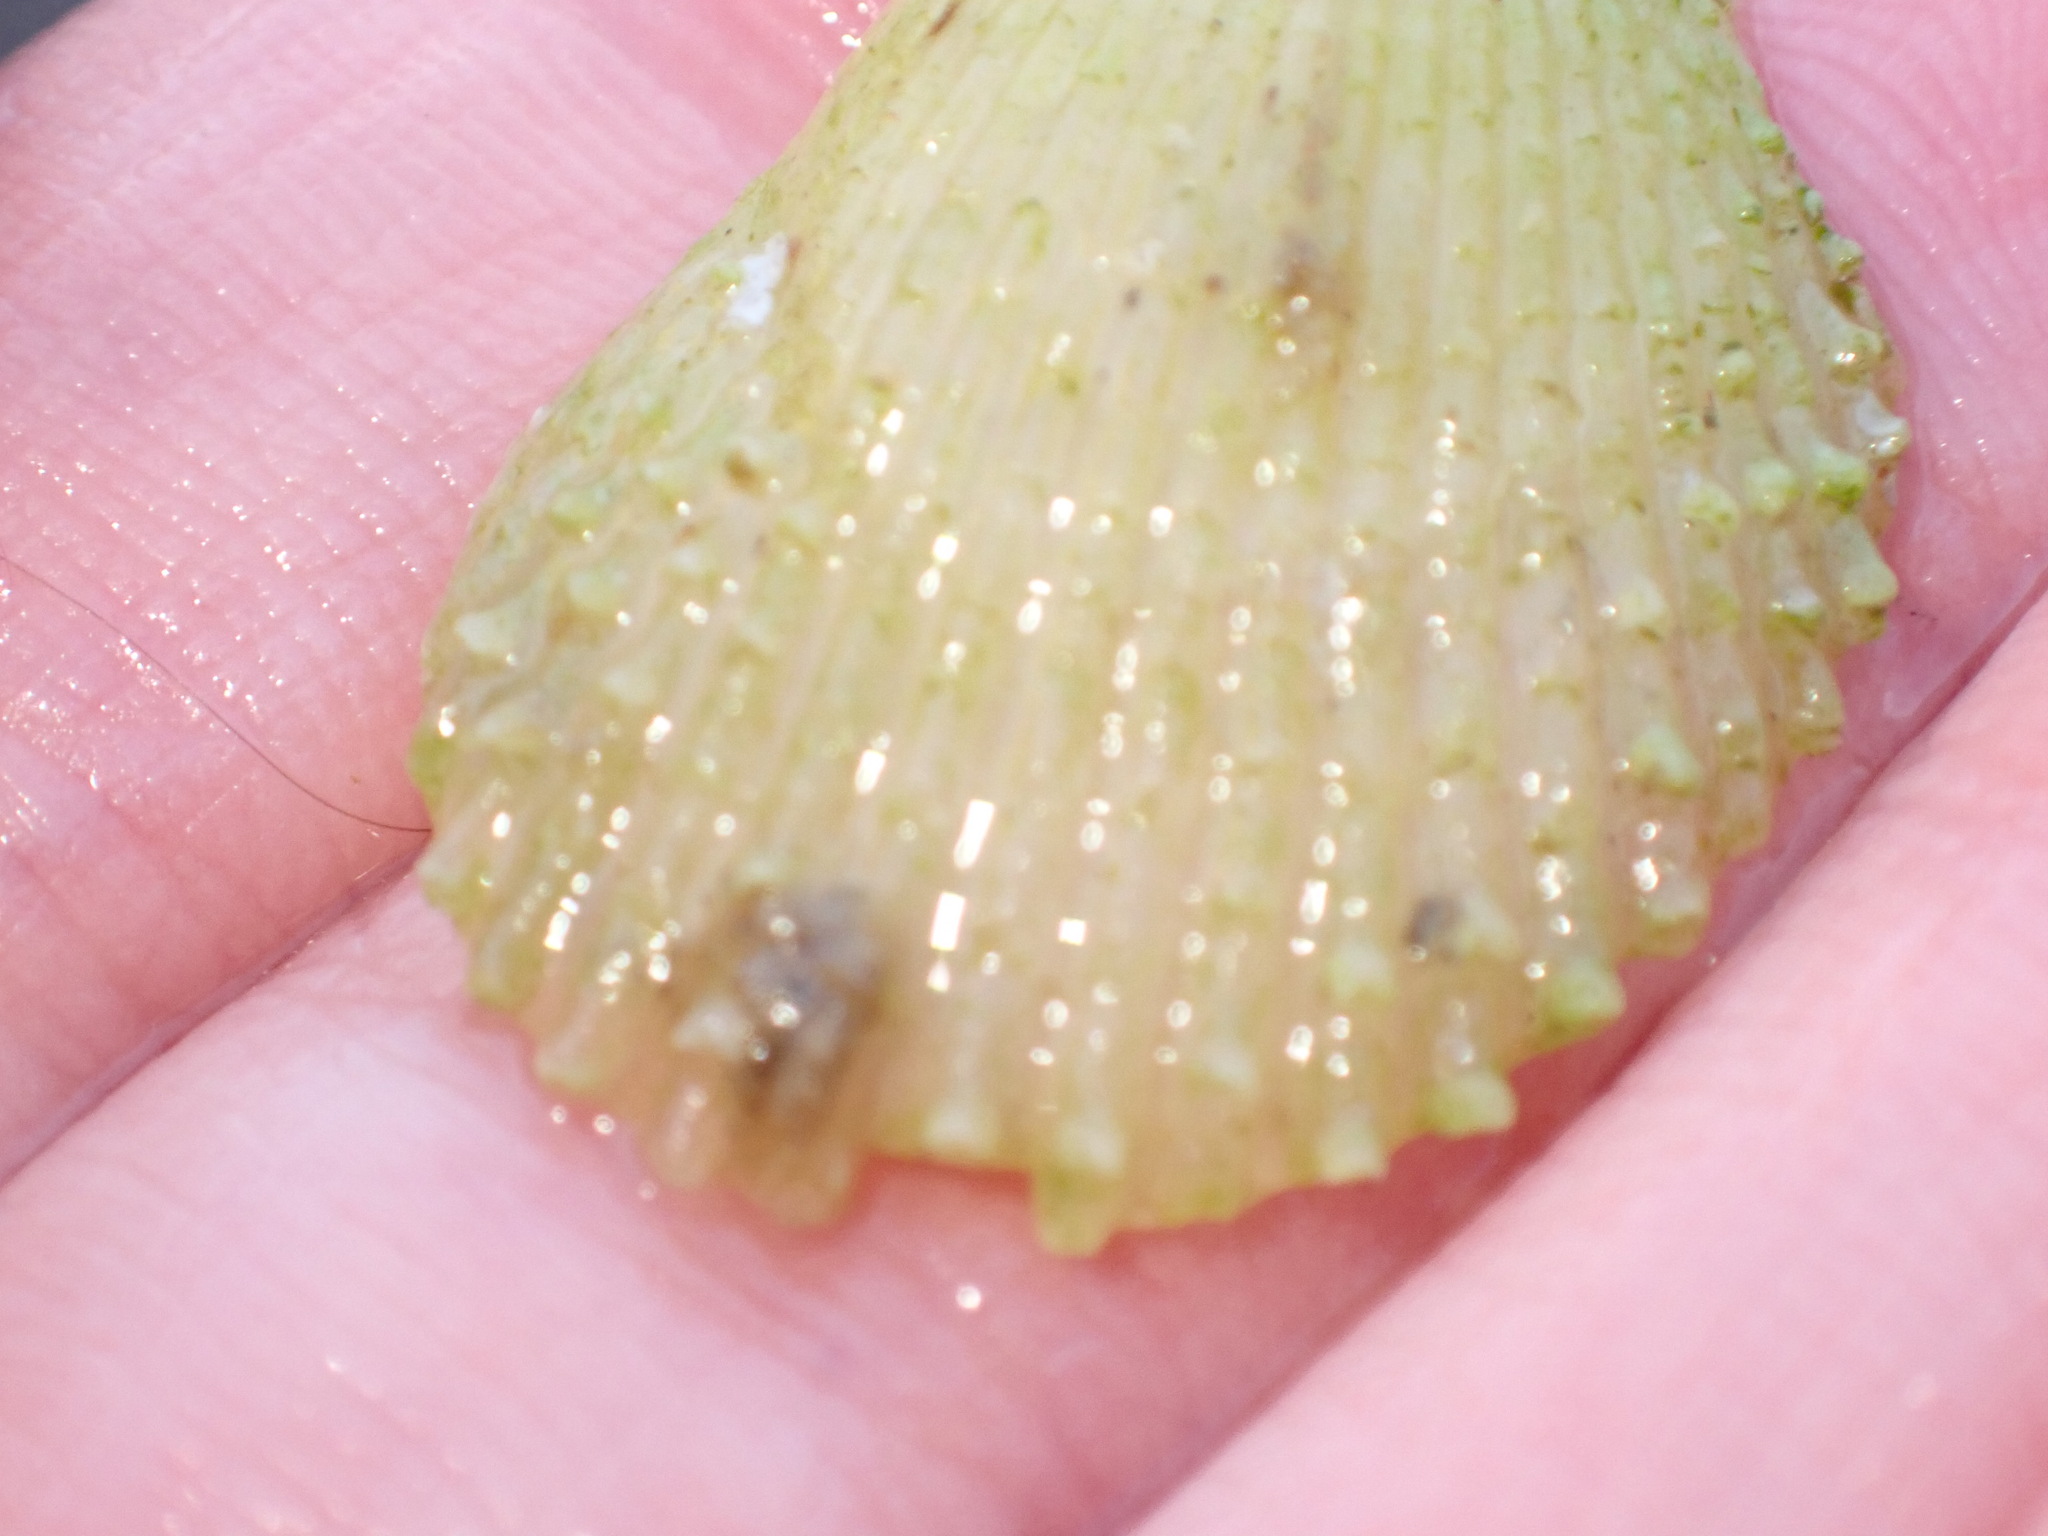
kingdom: Animalia
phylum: Mollusca
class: Bivalvia
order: Limida
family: Limidae
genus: Lima
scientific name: Lima lima
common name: Frilled file shell
